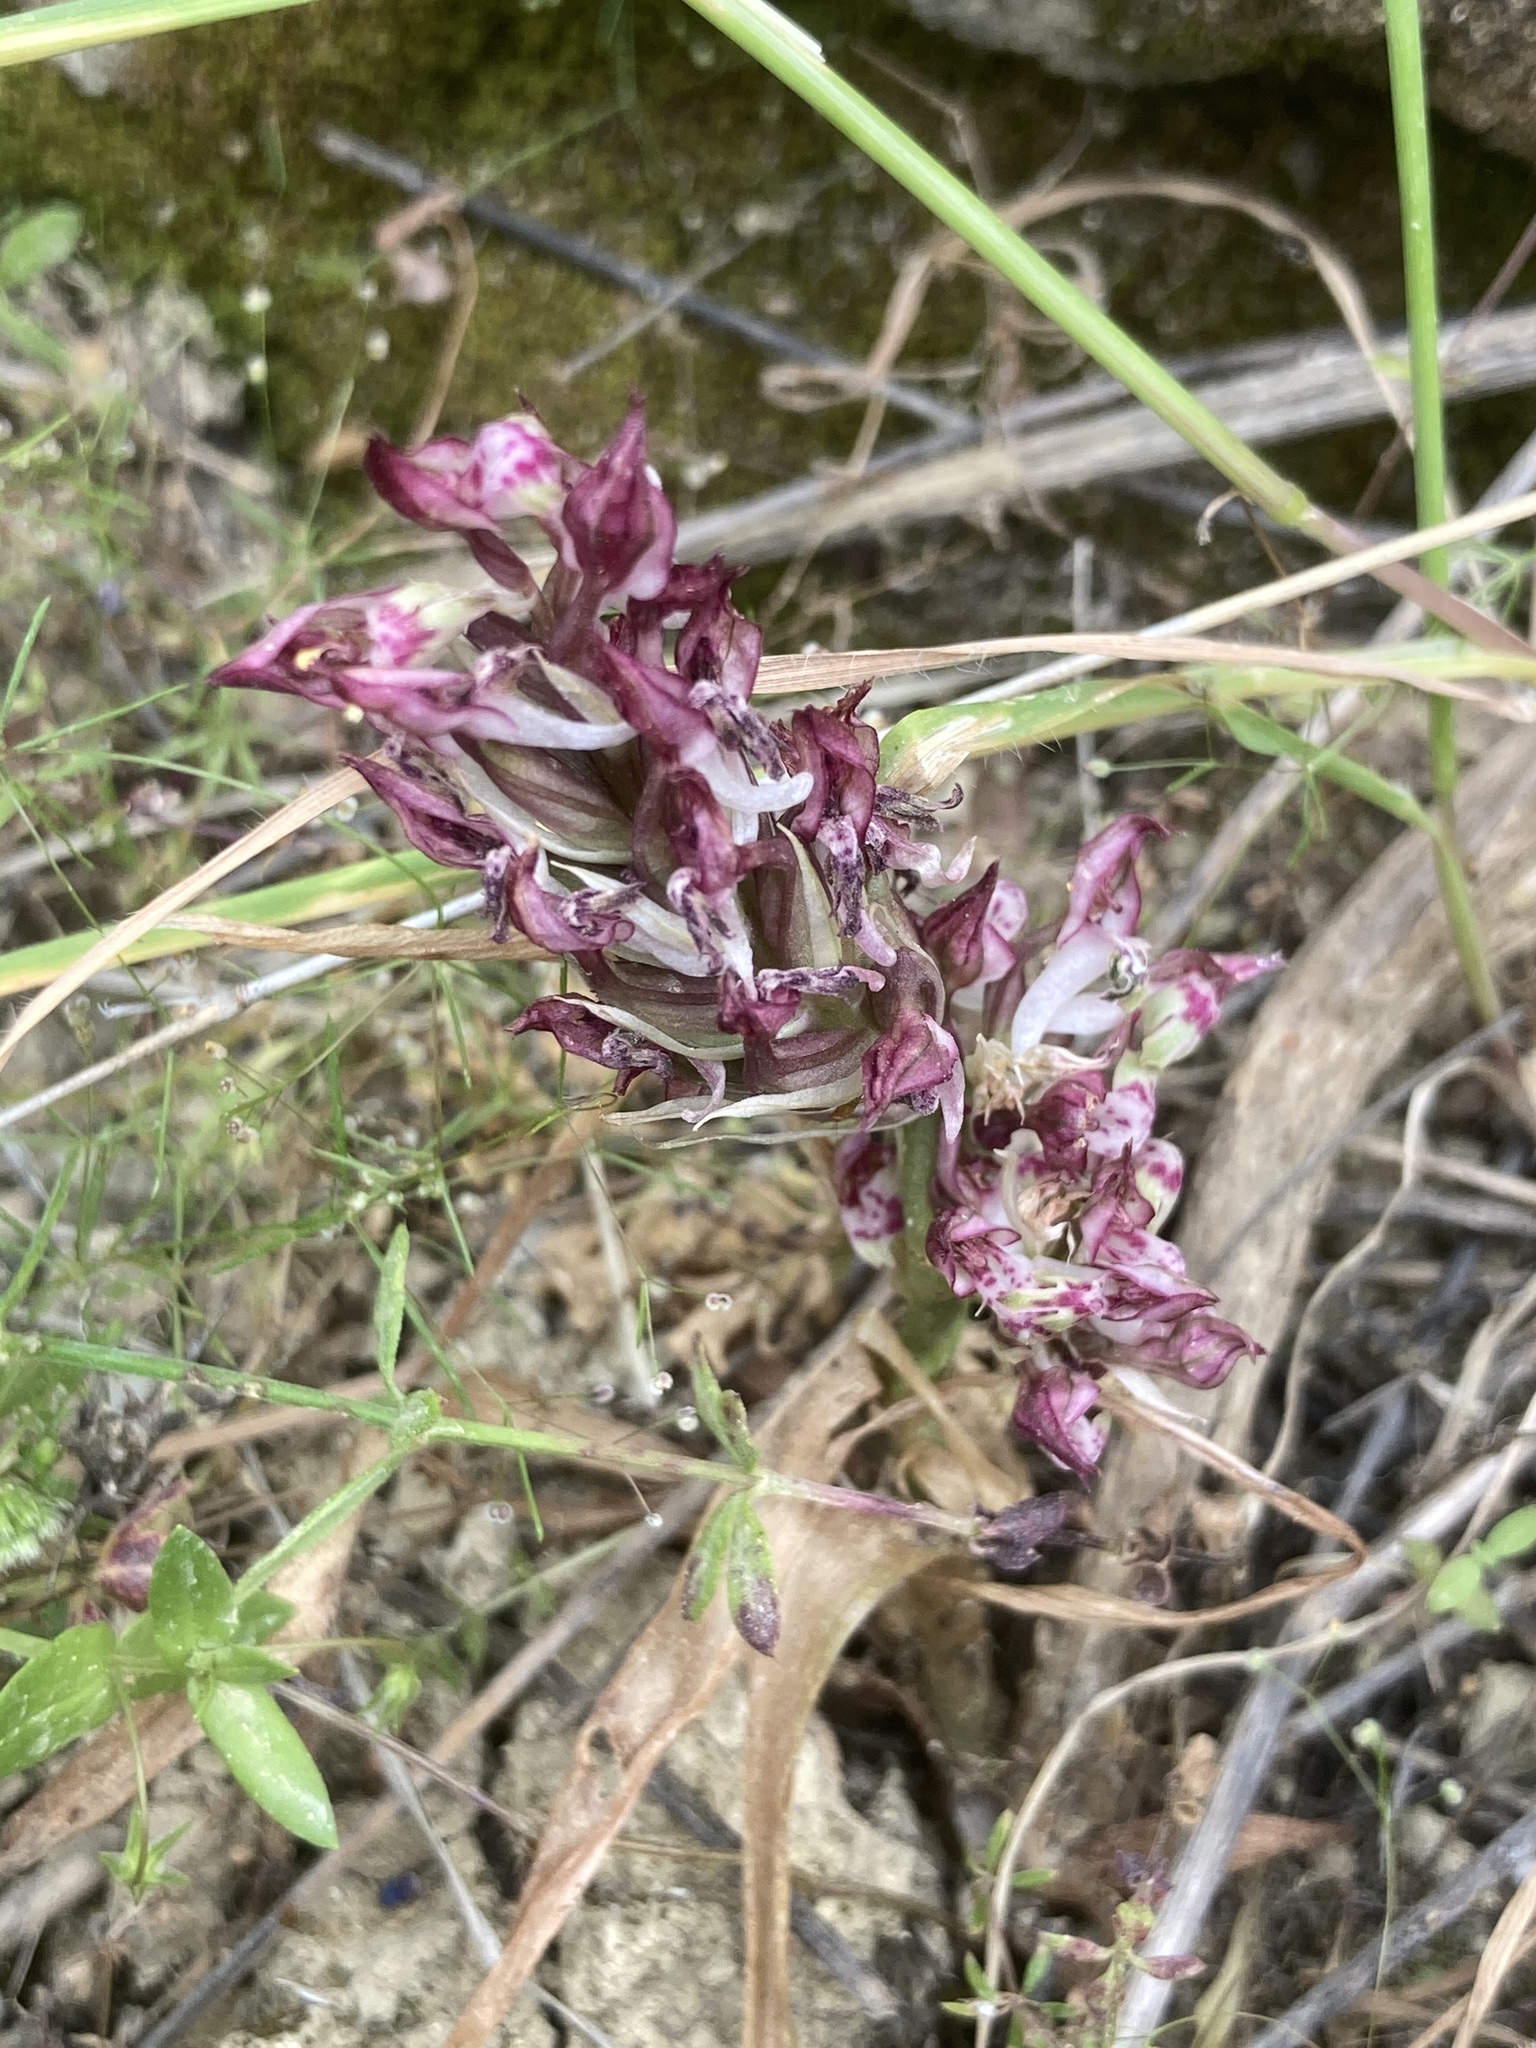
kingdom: Plantae
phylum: Tracheophyta
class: Liliopsida
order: Asparagales
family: Orchidaceae
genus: Anacamptis
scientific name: Anacamptis coriophora
